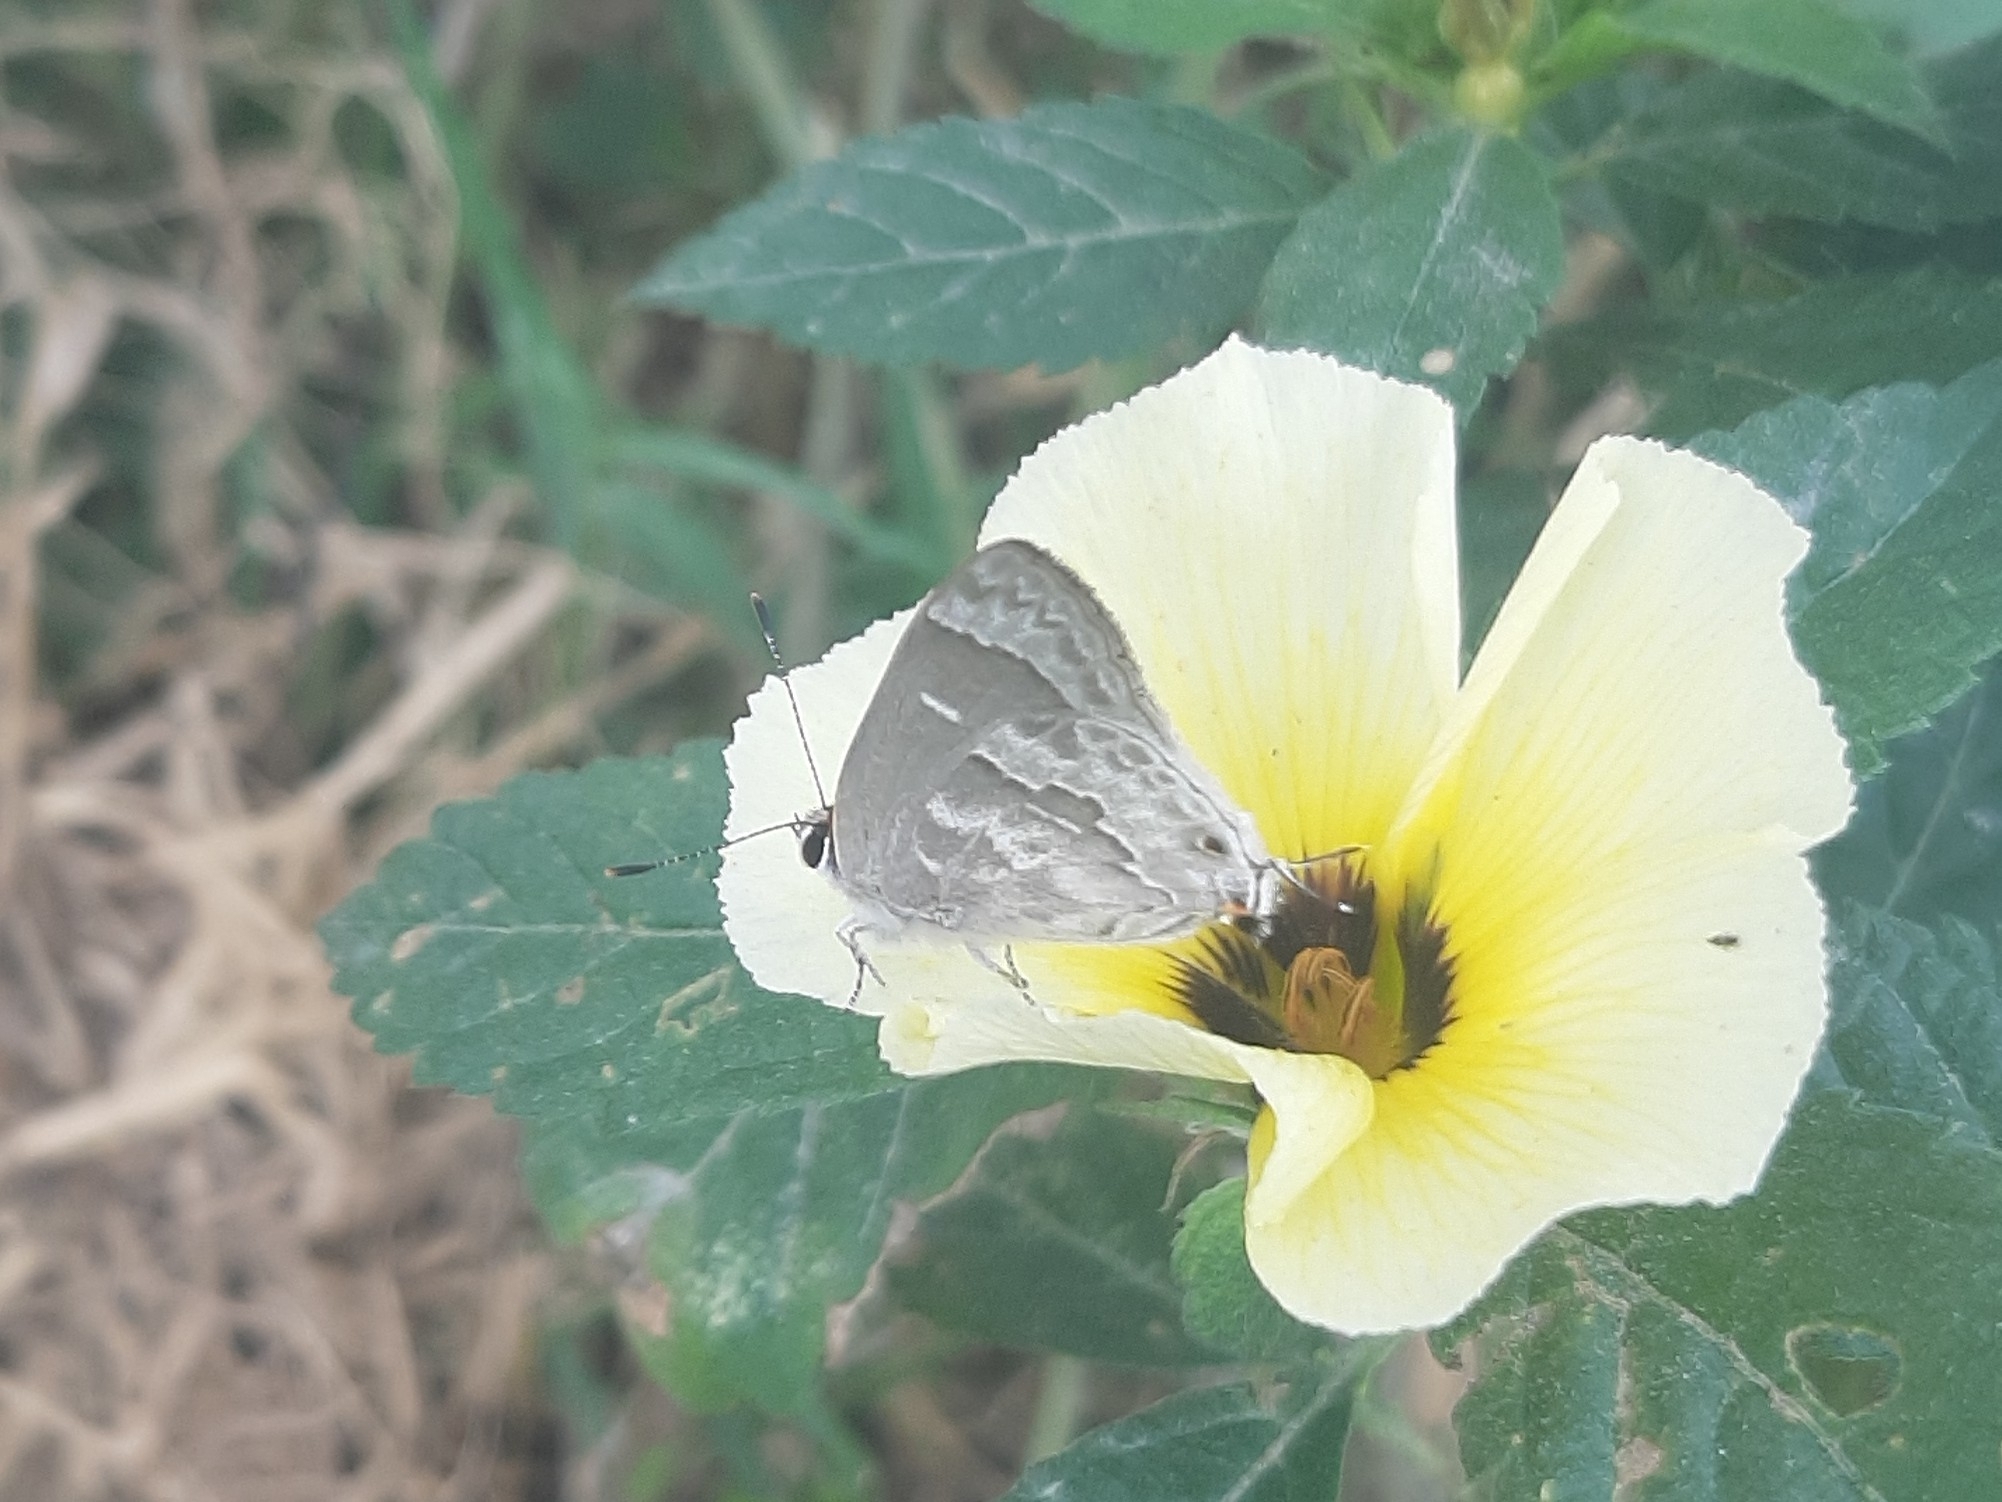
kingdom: Animalia
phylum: Arthropoda
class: Insecta
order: Lepidoptera
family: Lycaenidae
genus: Thecla
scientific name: Thecla yojoa
